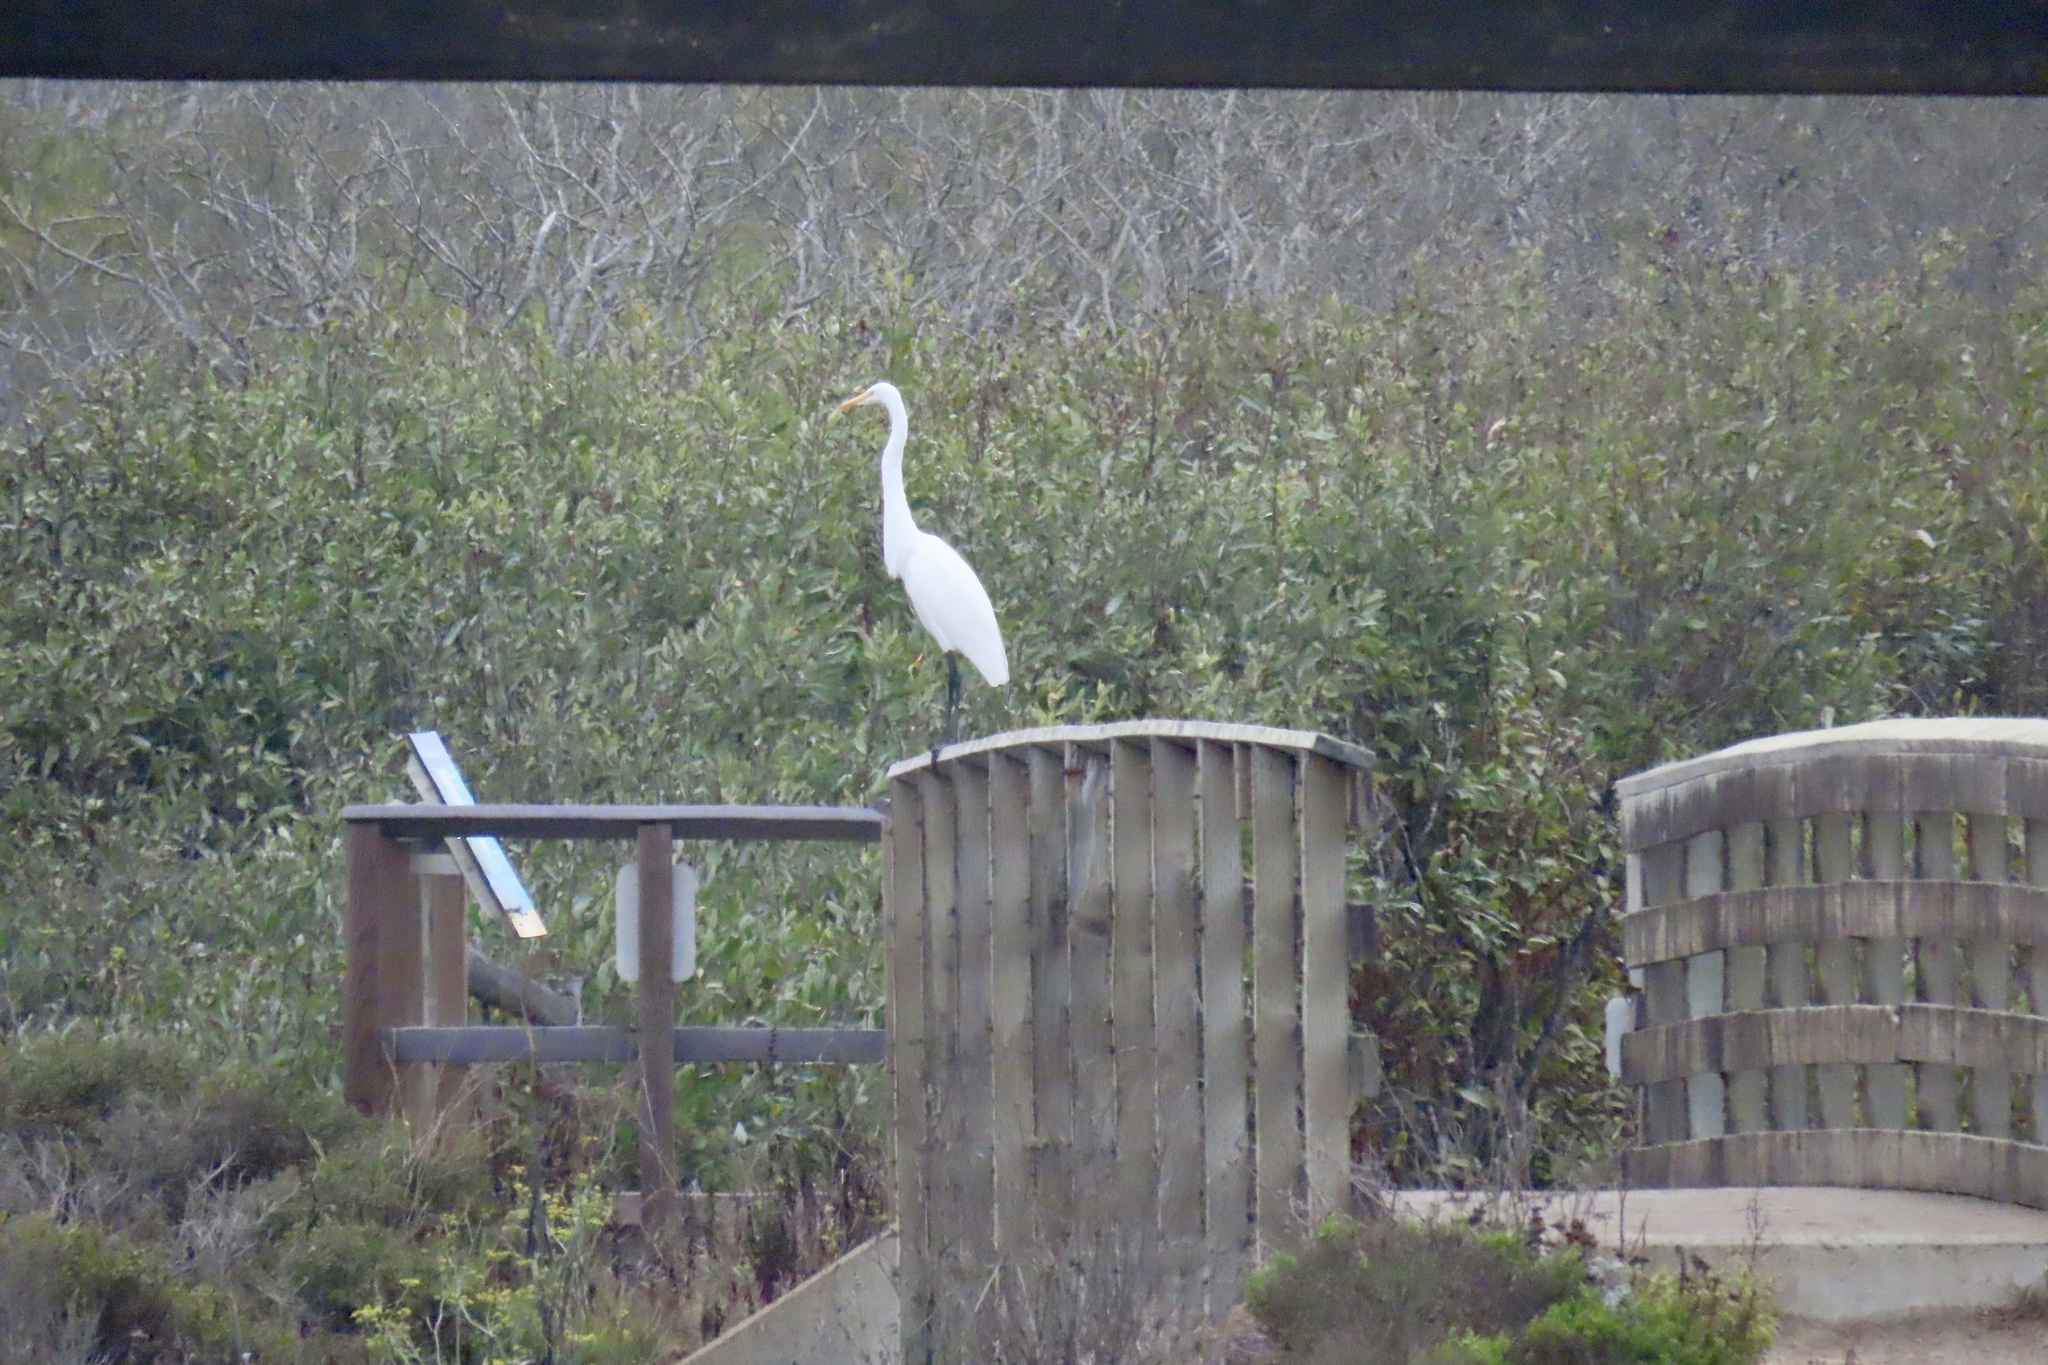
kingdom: Animalia
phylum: Chordata
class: Aves
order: Pelecaniformes
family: Ardeidae
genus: Ardea
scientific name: Ardea alba
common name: Great egret
